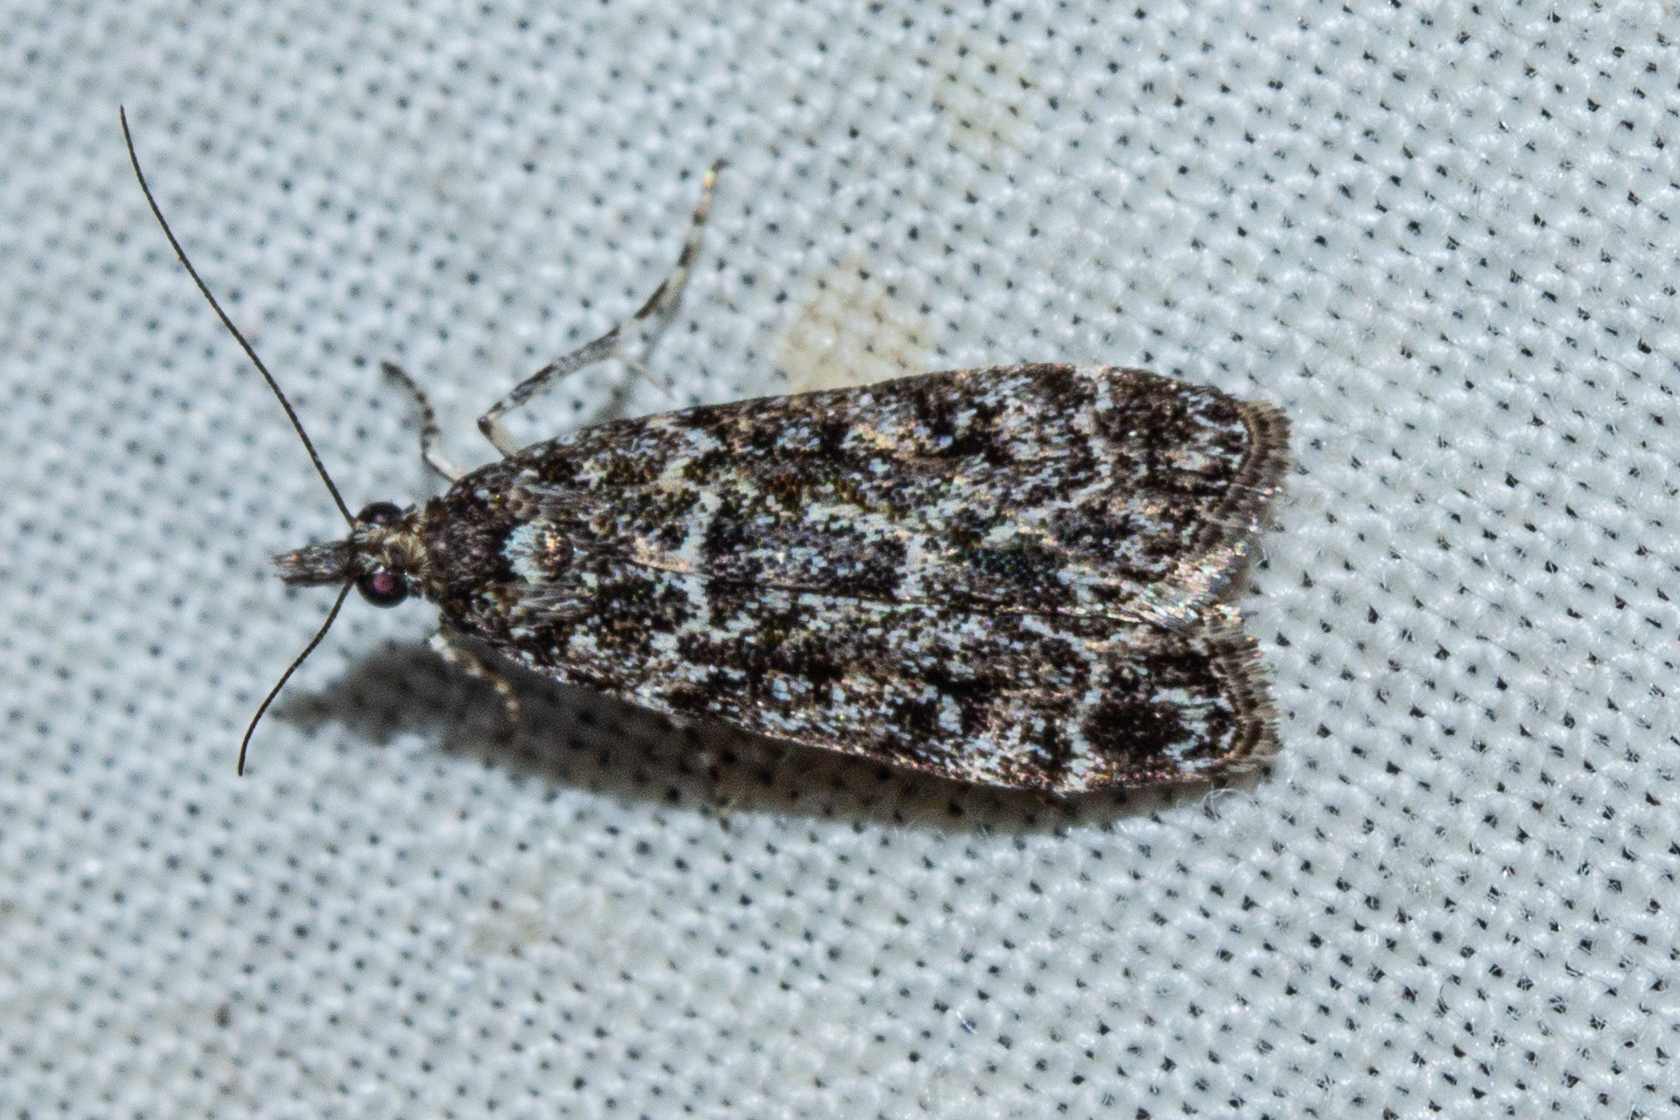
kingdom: Animalia
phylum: Arthropoda
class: Insecta
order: Lepidoptera
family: Crambidae
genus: Eudonia
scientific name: Eudonia philerga
